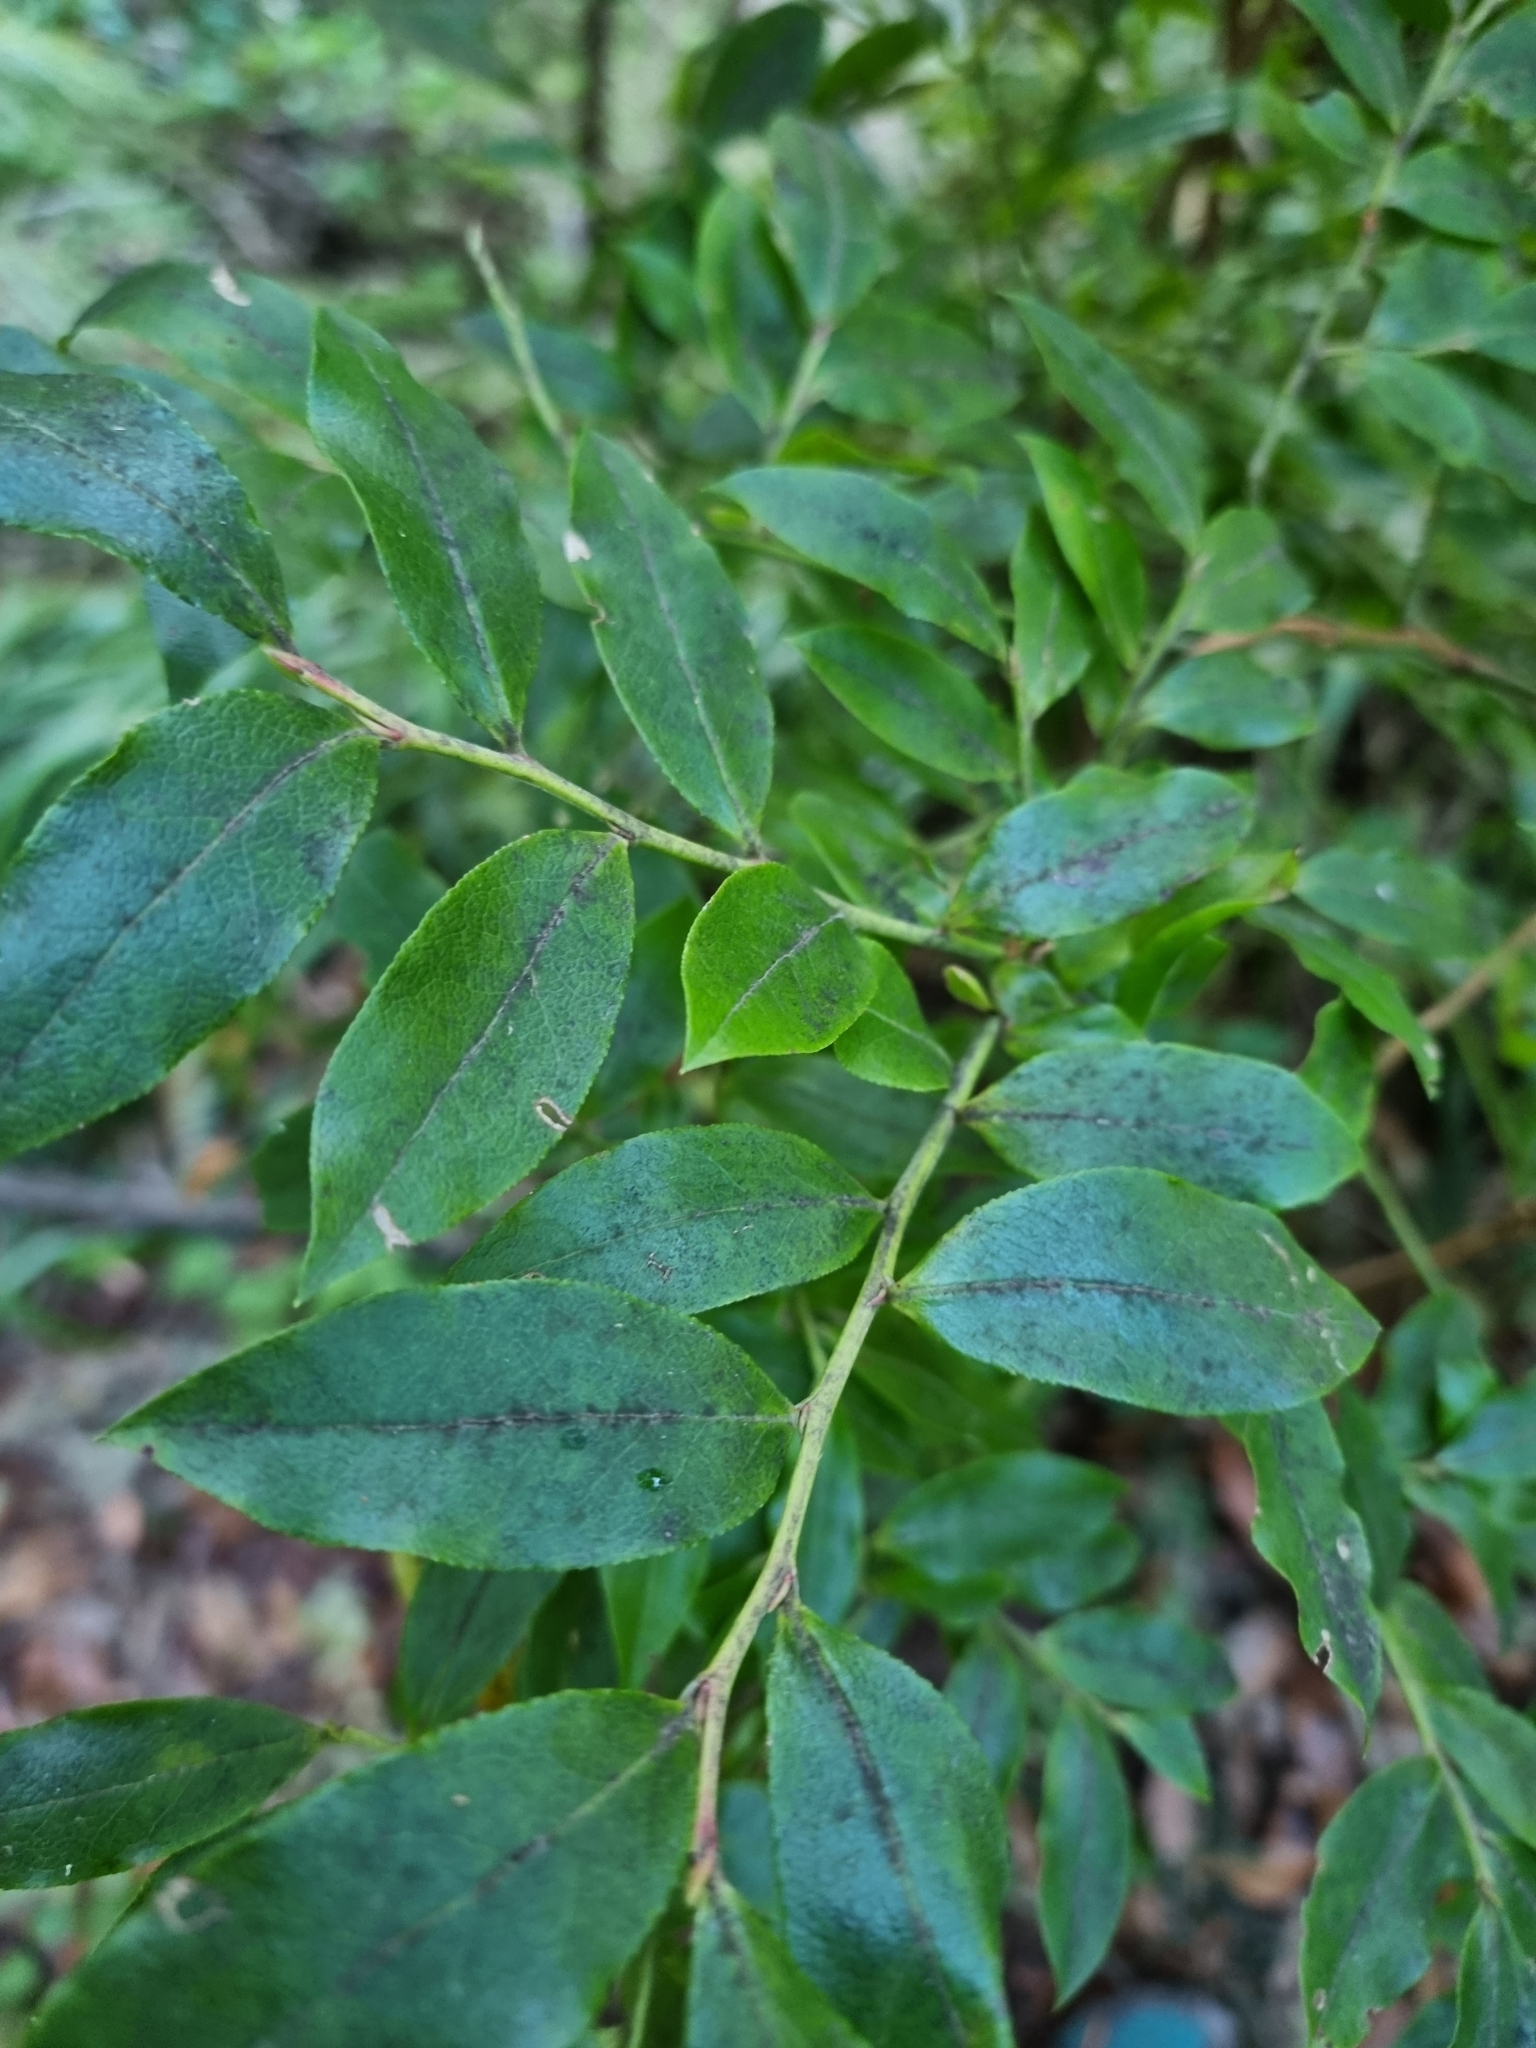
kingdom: Plantae
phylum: Tracheophyta
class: Magnoliopsida
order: Ericales
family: Ericaceae
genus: Vaccinium
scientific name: Vaccinium padifolium
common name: Madeiran blueberry
